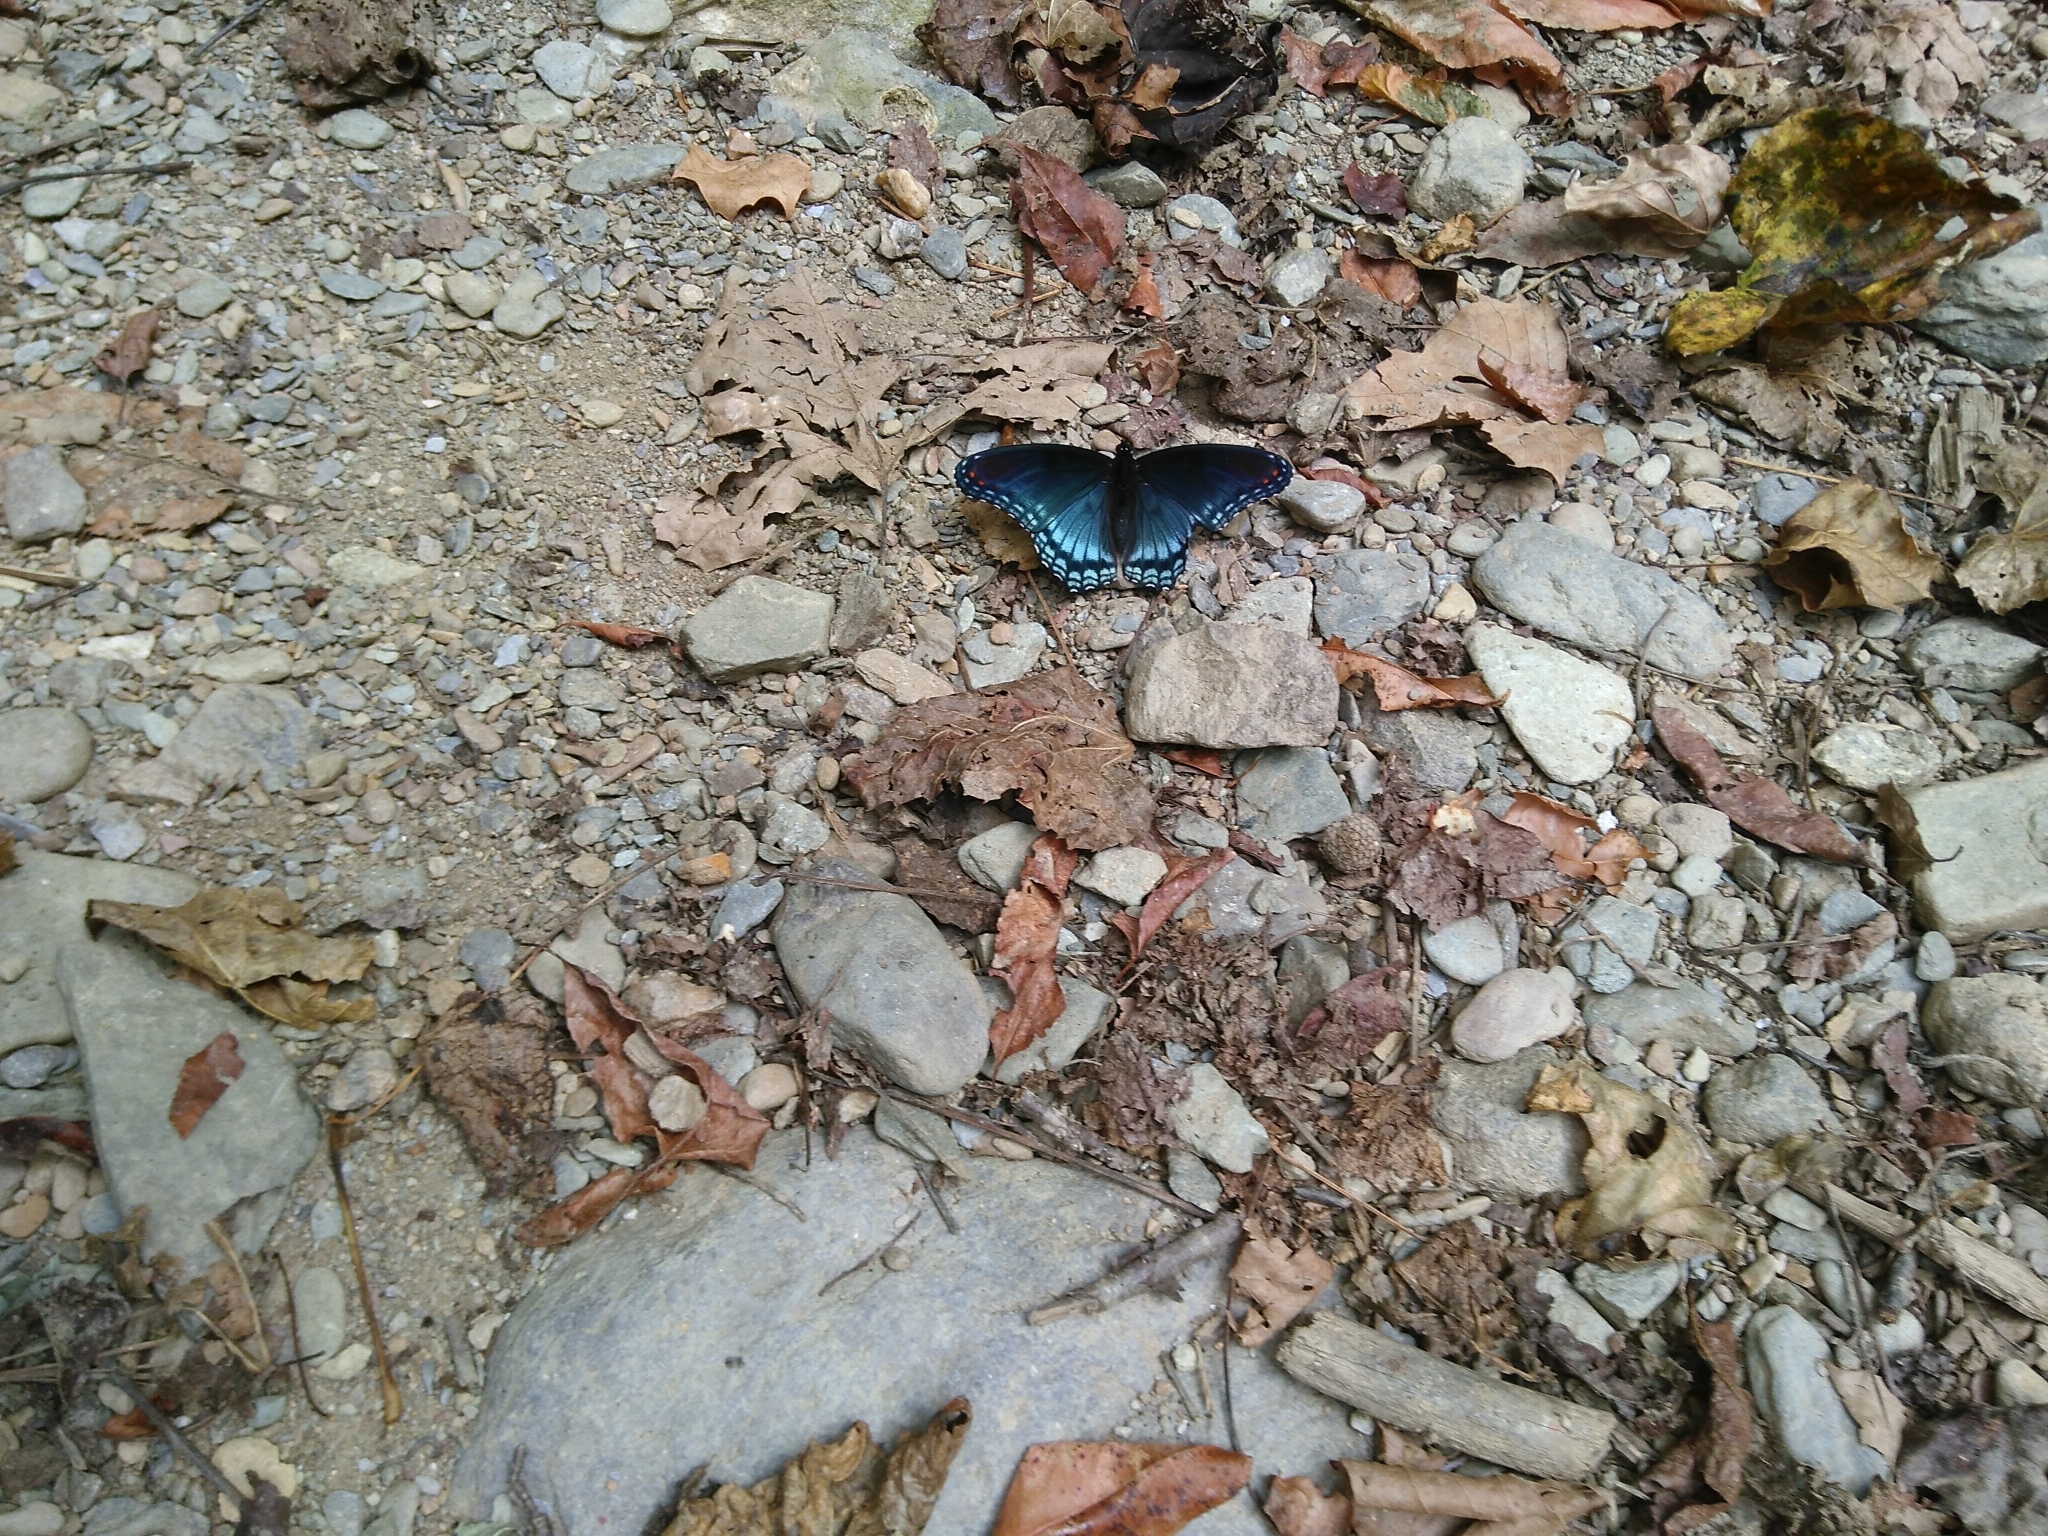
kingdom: Animalia
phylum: Arthropoda
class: Insecta
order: Lepidoptera
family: Nymphalidae
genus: Limenitis
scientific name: Limenitis astyanax
